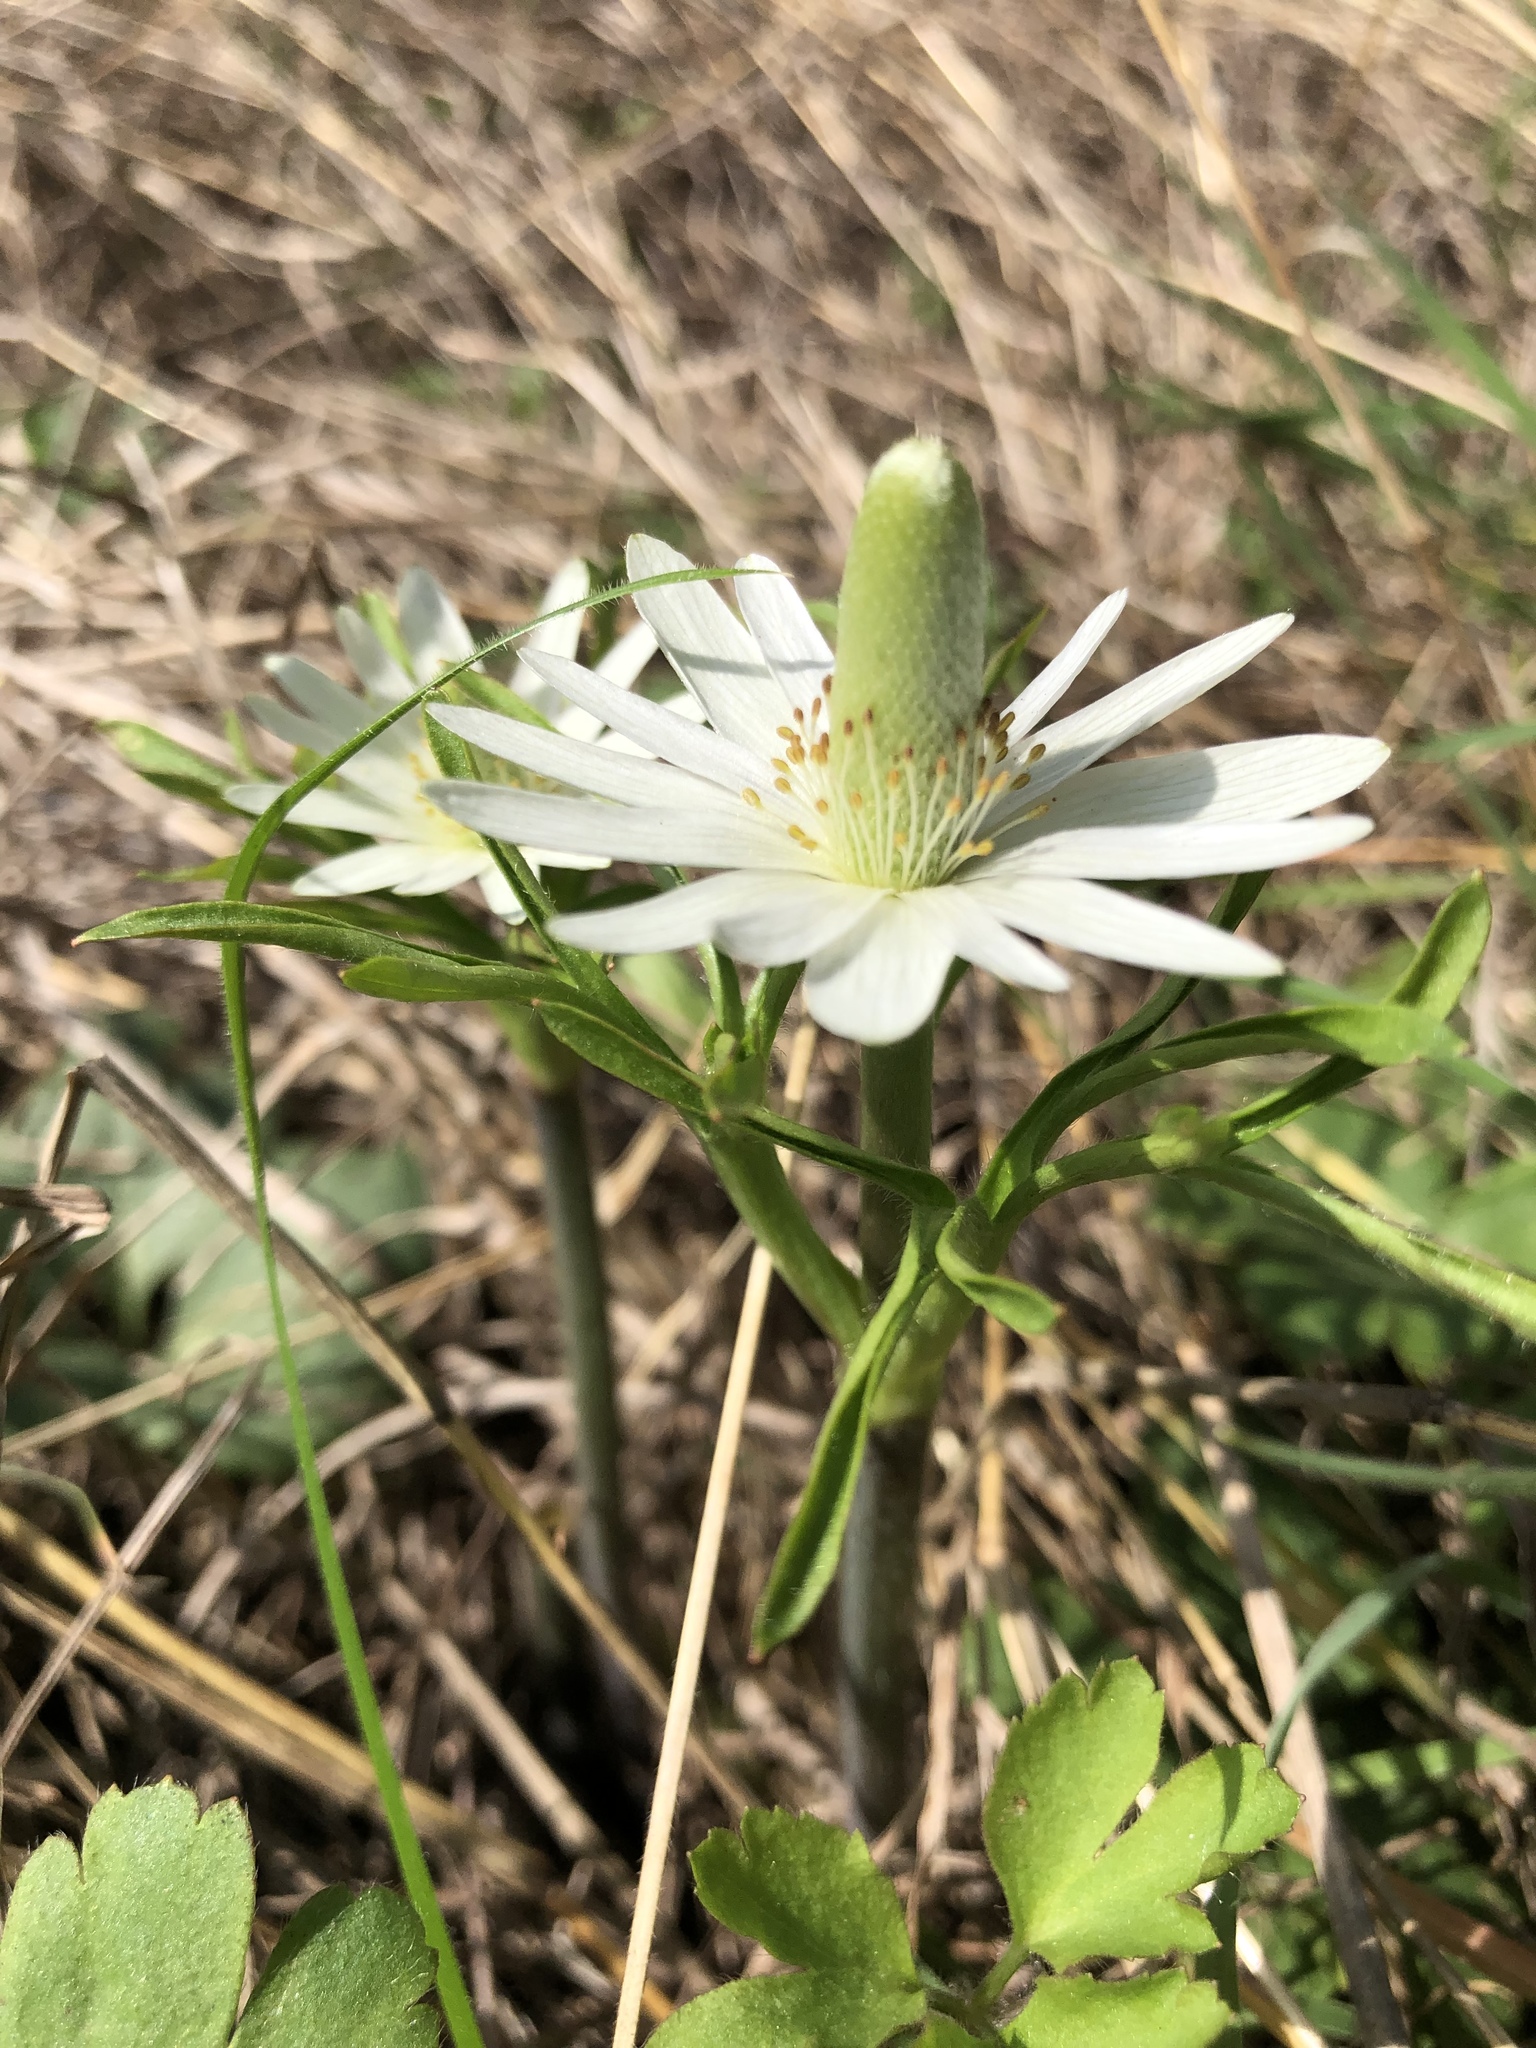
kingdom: Plantae
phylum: Tracheophyta
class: Magnoliopsida
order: Ranunculales
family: Ranunculaceae
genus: Anemone
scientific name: Anemone berlandieri
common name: Ten-petal anemone
